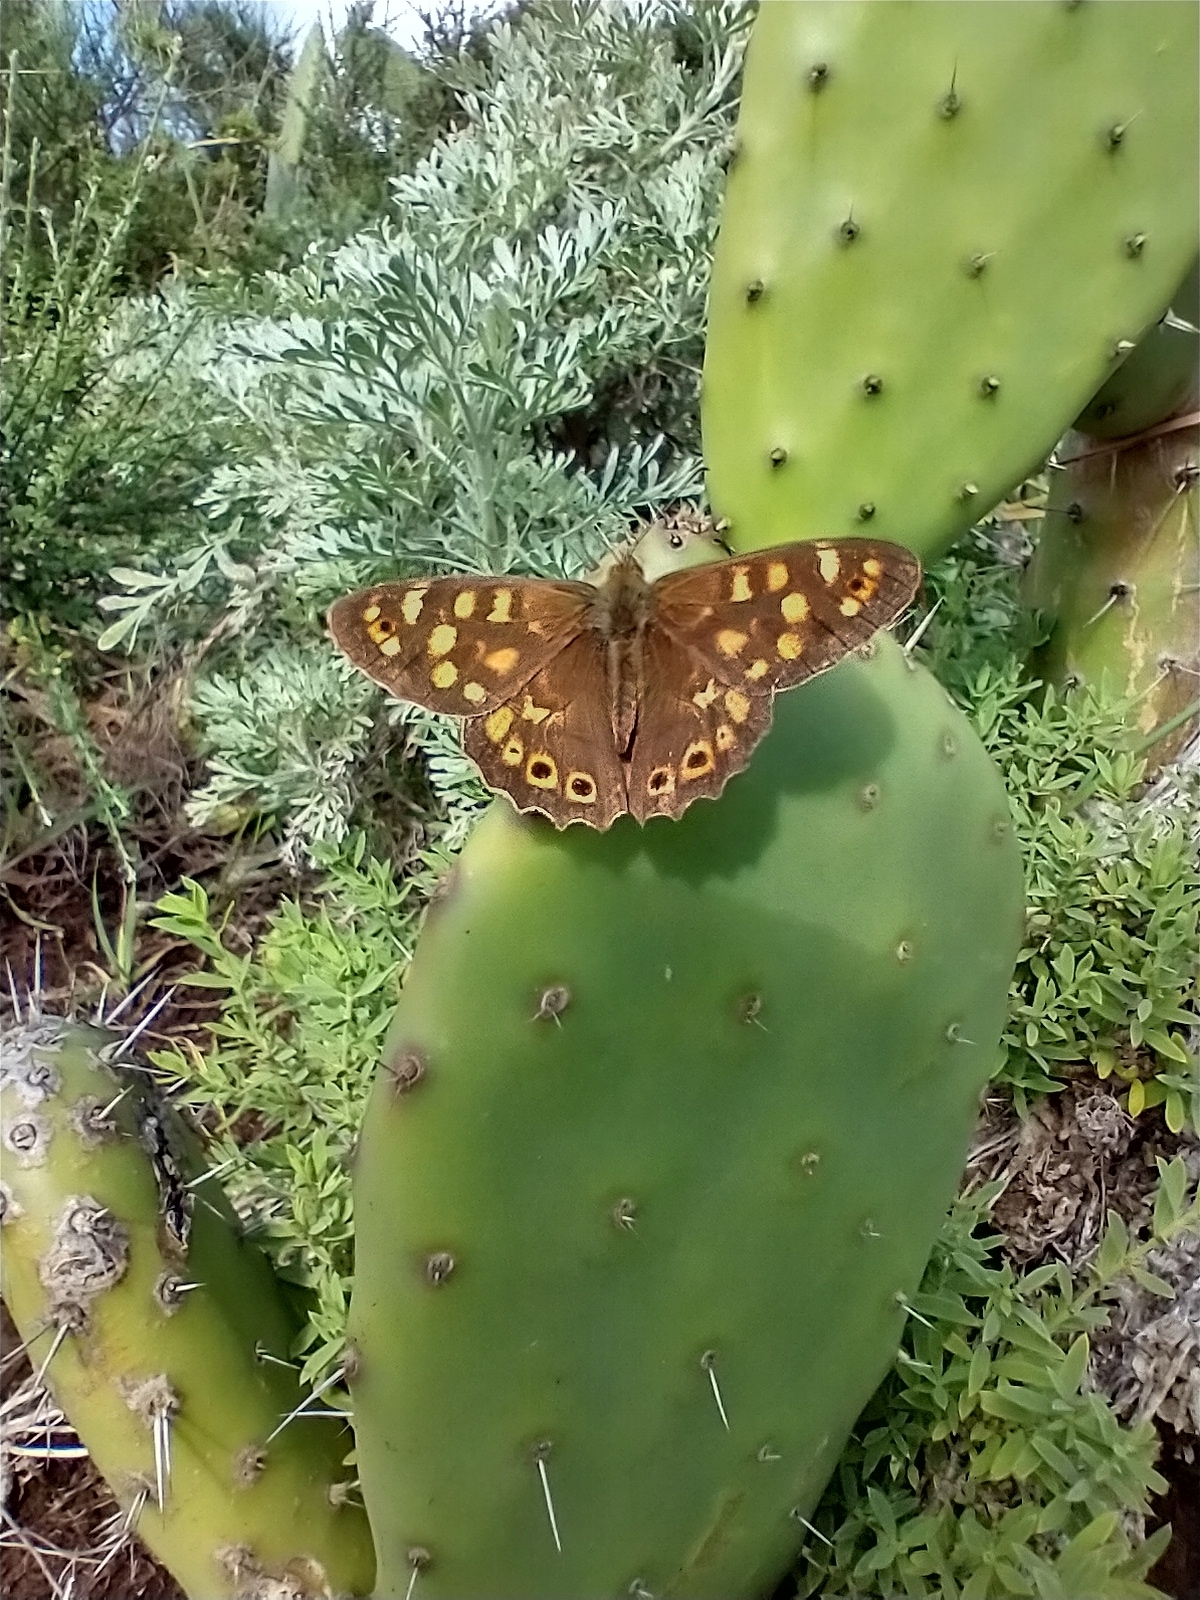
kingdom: Animalia
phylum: Arthropoda
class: Insecta
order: Lepidoptera
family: Nymphalidae
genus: Pararge
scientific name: Pararge aegeria
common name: Speckled wood
